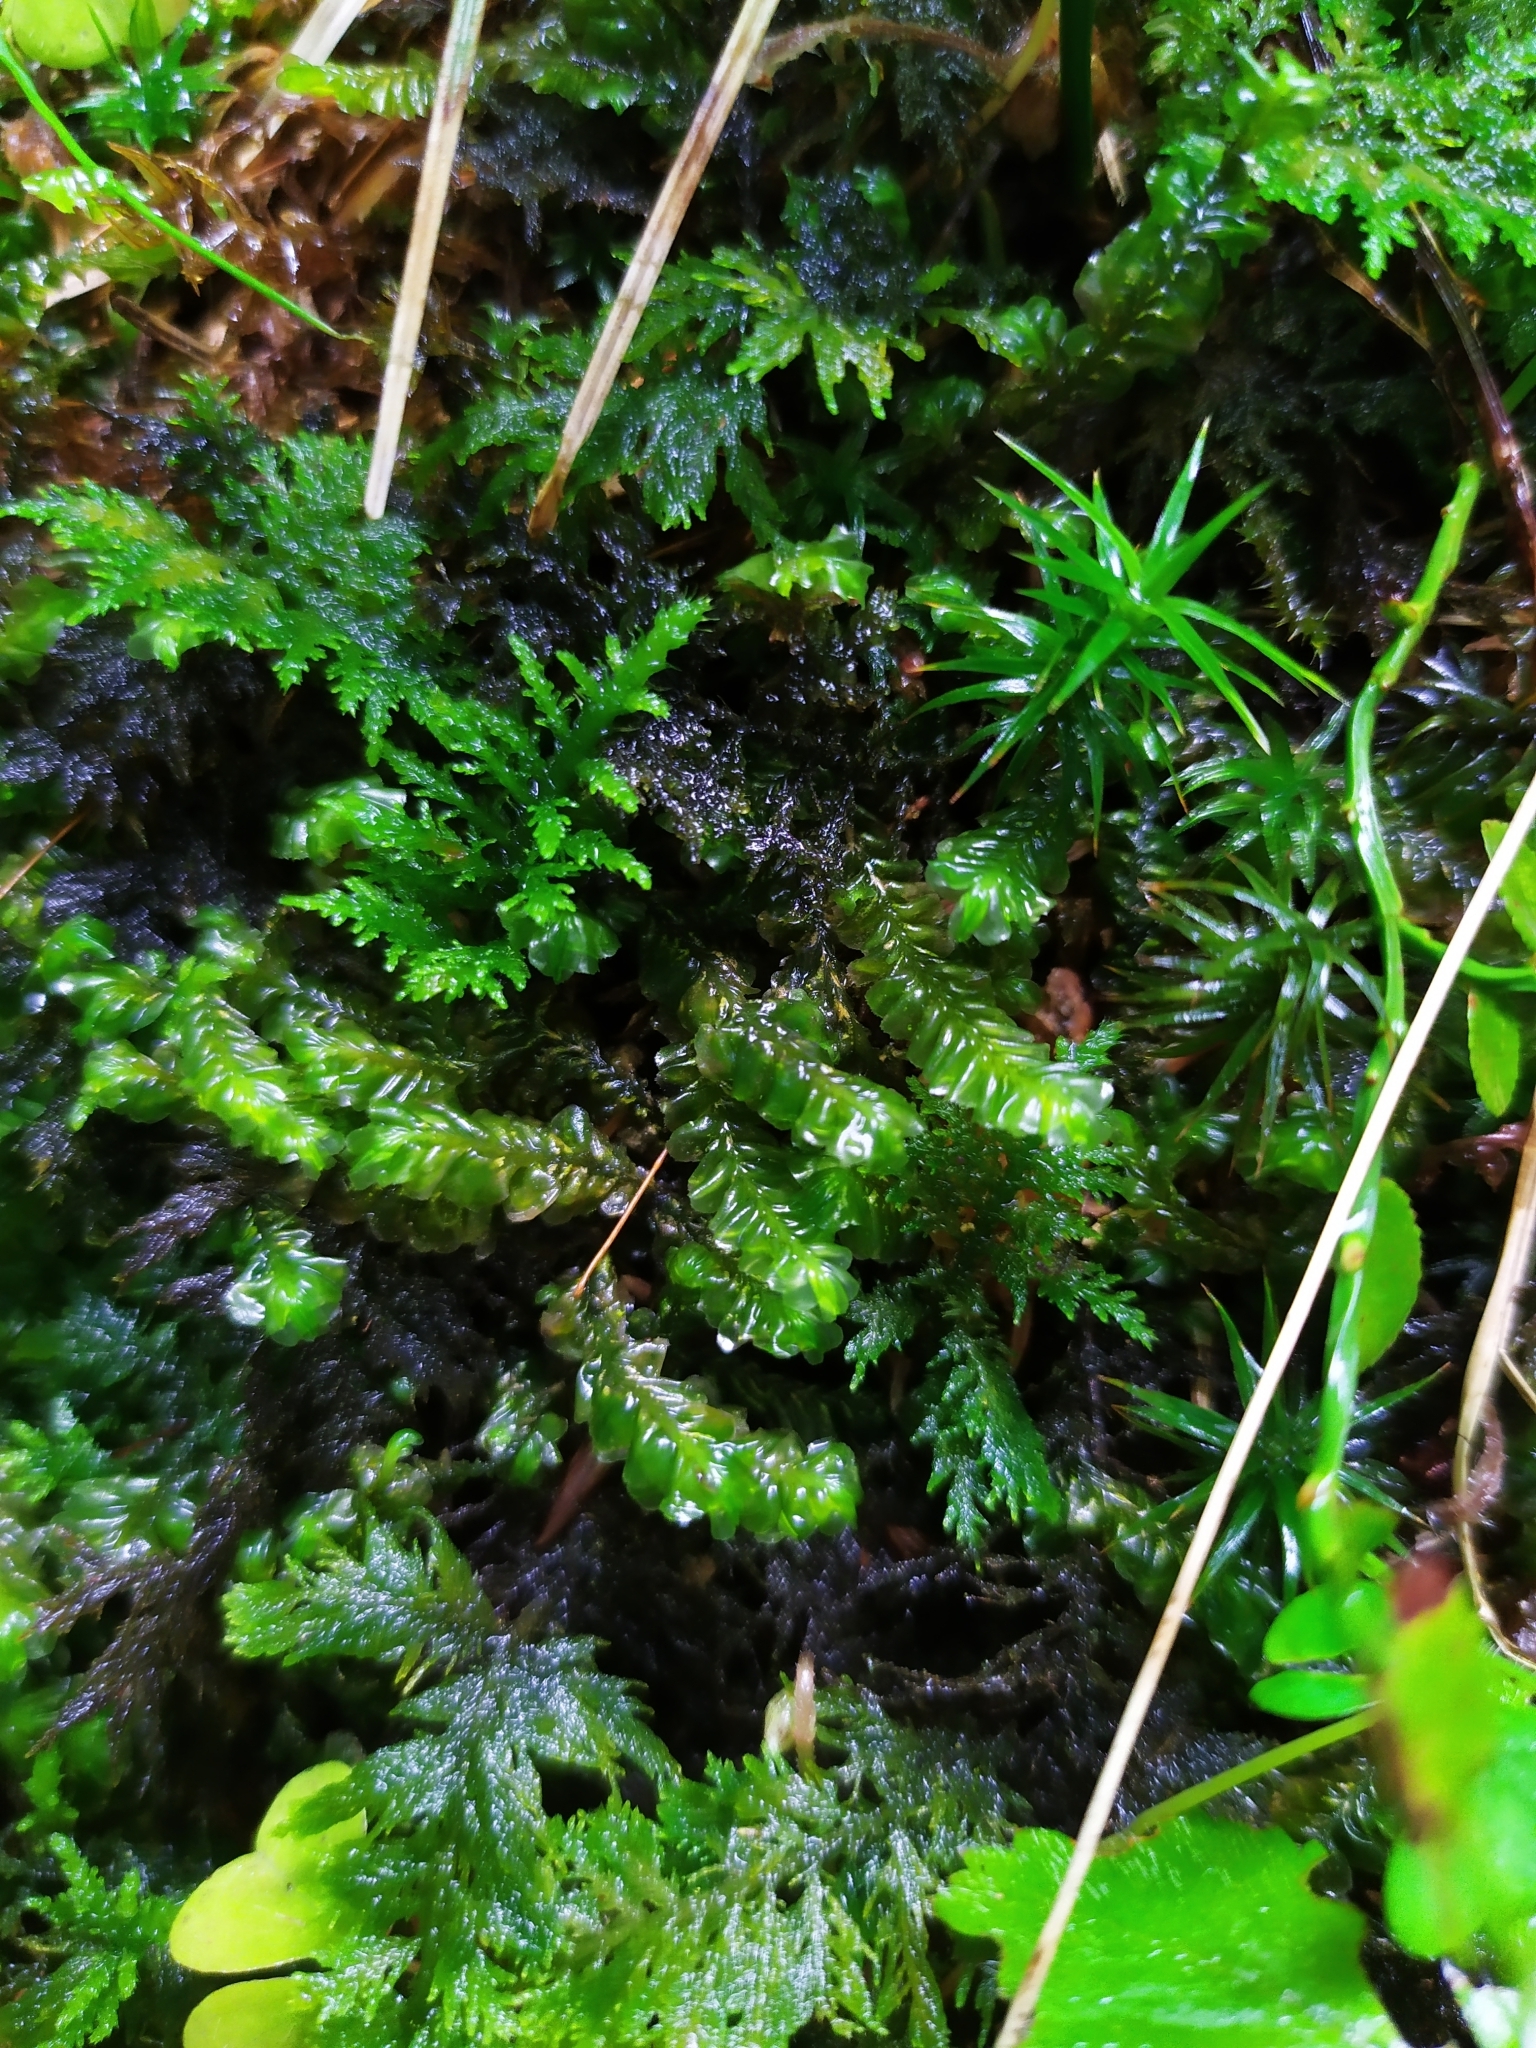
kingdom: Plantae
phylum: Marchantiophyta
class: Jungermanniopsida
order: Jungermanniales
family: Plagiochilaceae
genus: Plagiochila
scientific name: Plagiochila asplenioides
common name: Greater featherwort
